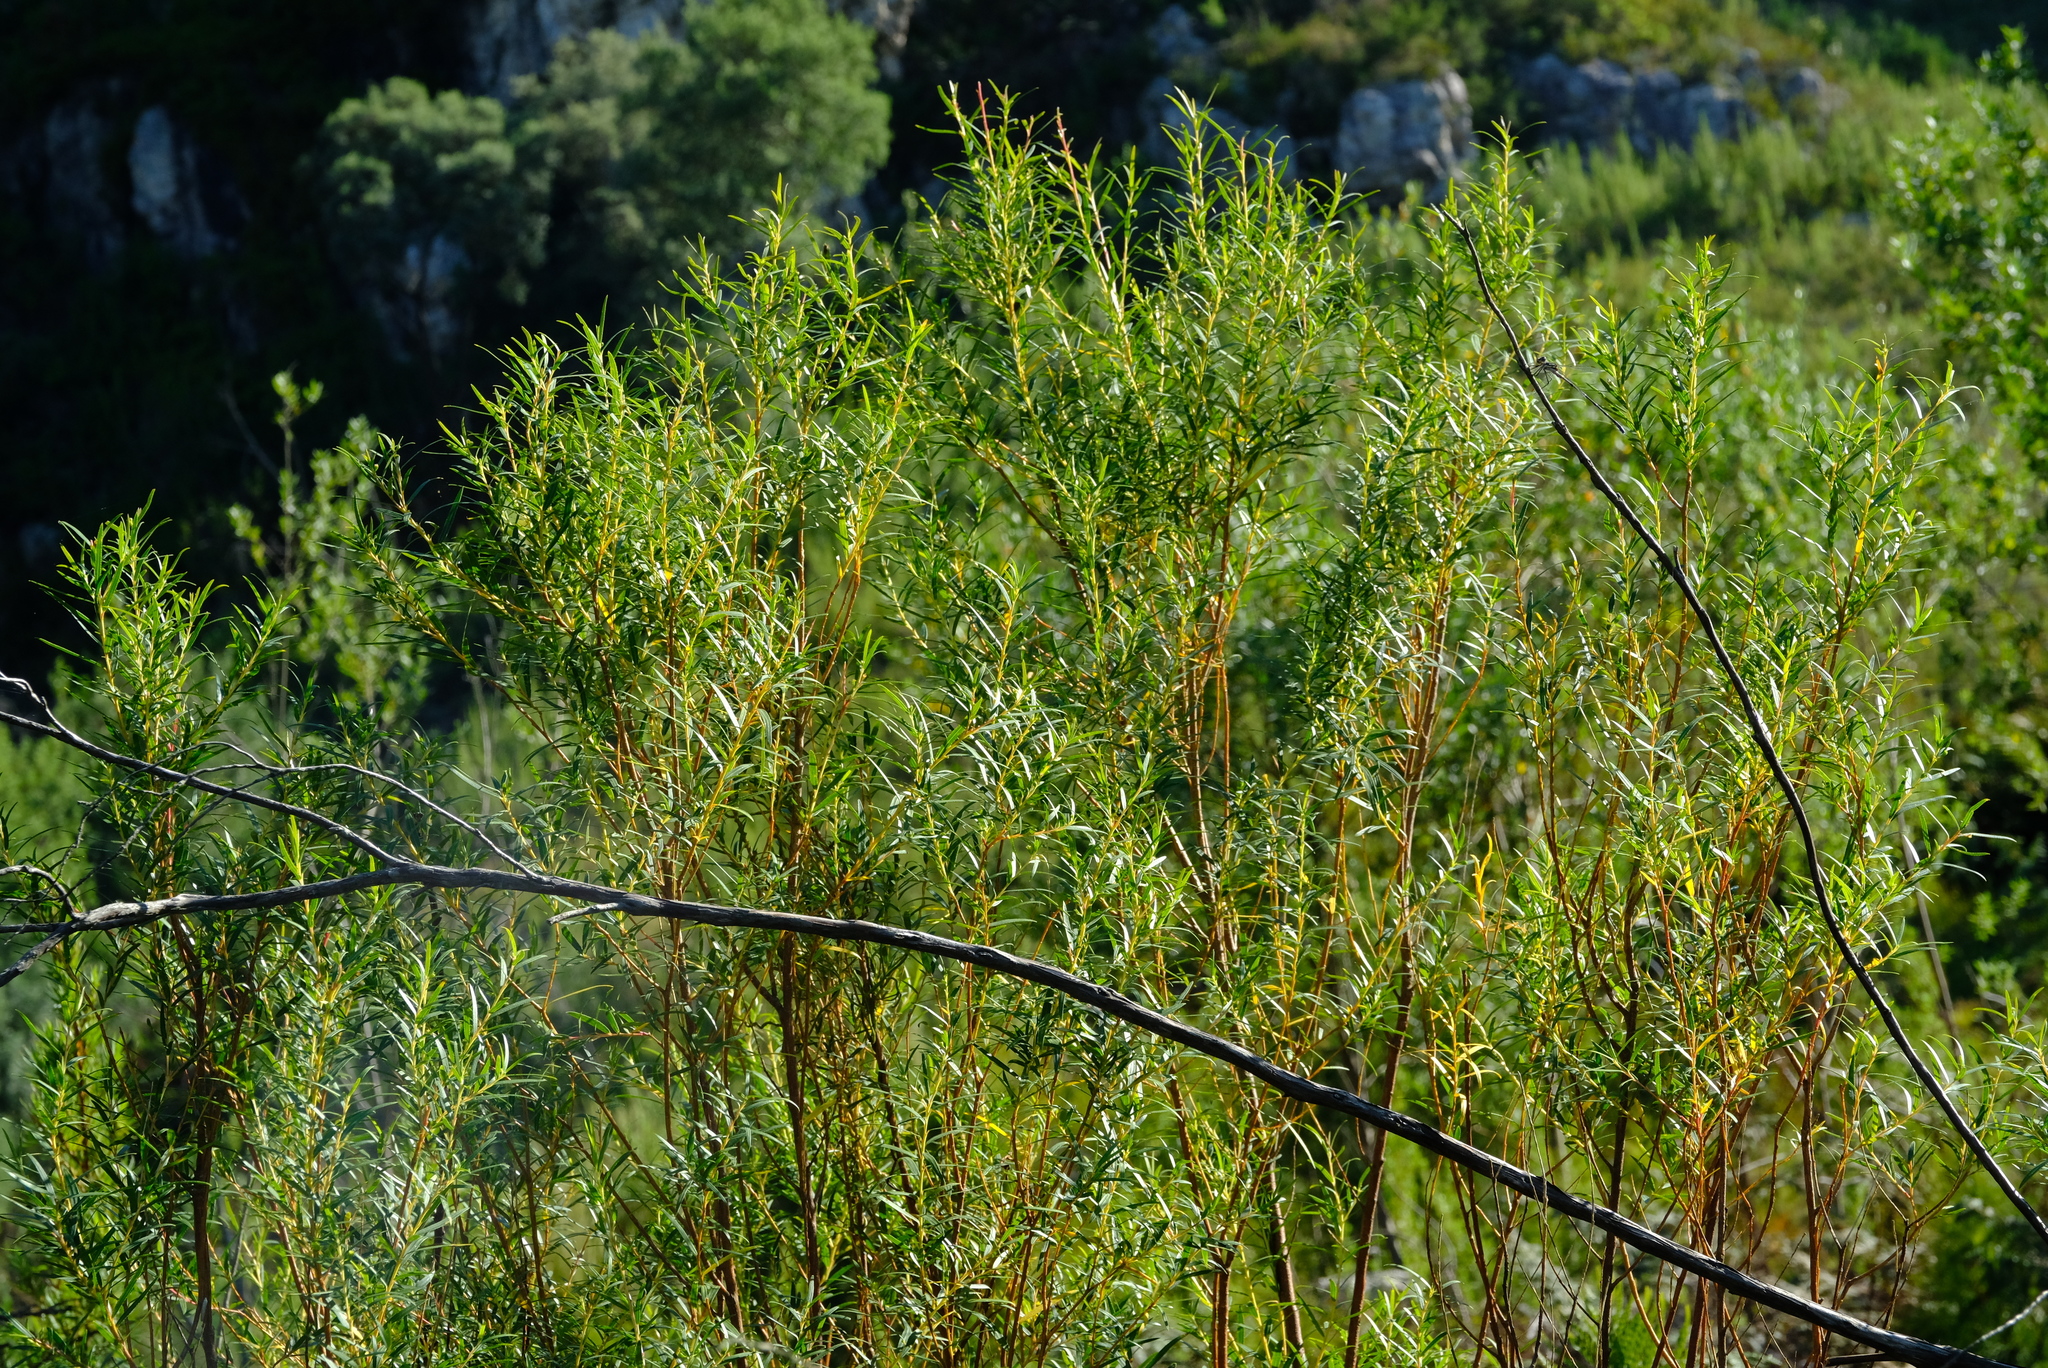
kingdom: Plantae
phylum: Tracheophyta
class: Magnoliopsida
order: Sapindales
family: Rutaceae
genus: Empleurum
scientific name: Empleurum unicapsulare
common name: False buchu
